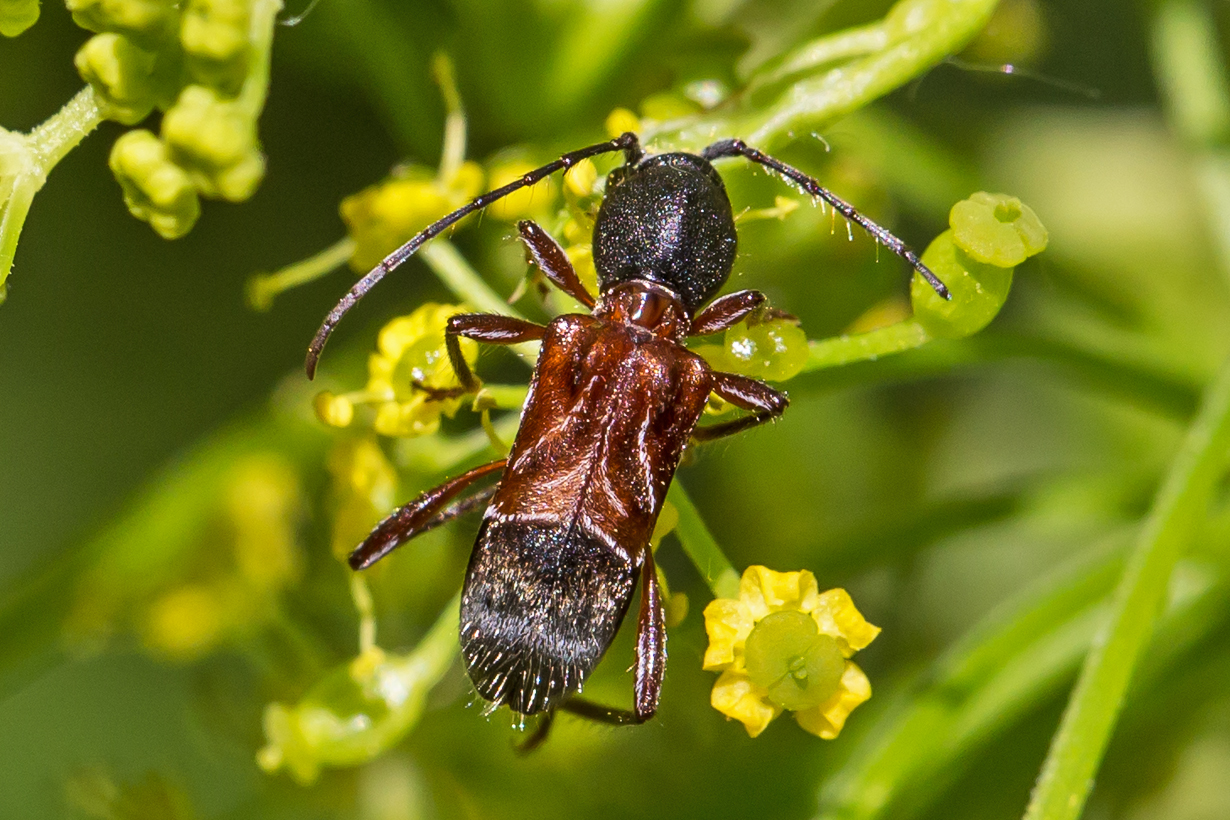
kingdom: Animalia
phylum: Arthropoda
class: Insecta
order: Coleoptera
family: Cerambycidae
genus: Cyrtophorus
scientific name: Cyrtophorus verrucosus
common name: Ant-like longhorn beetle
